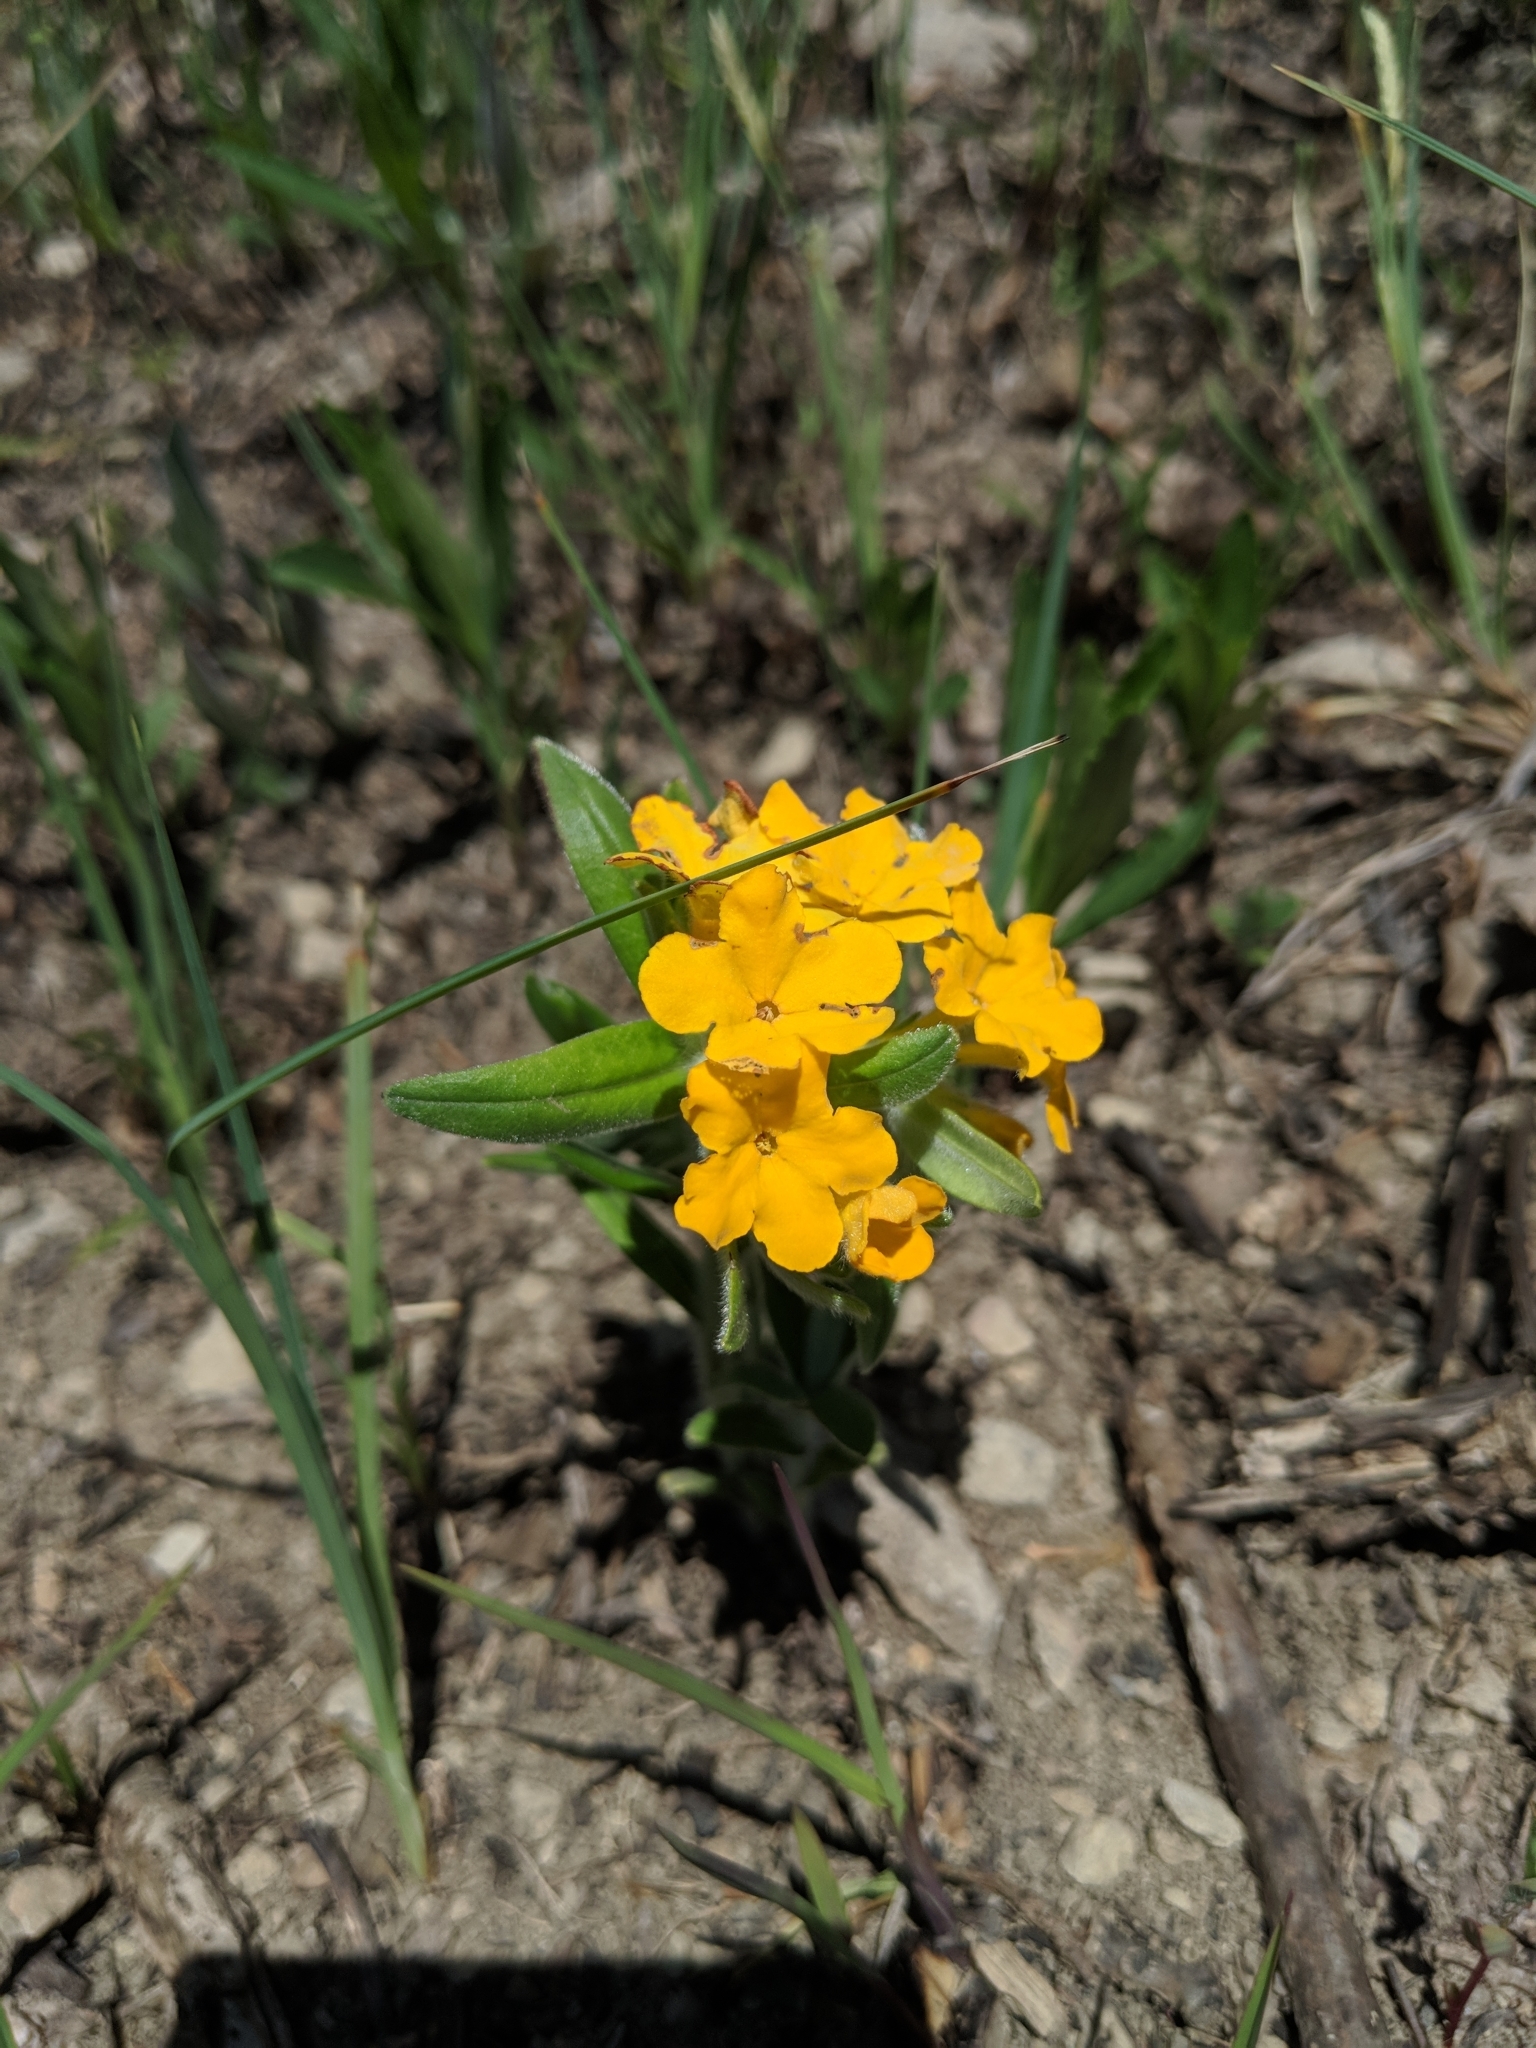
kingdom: Plantae
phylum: Tracheophyta
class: Magnoliopsida
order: Boraginales
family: Boraginaceae
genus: Lithospermum
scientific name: Lithospermum canescens
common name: Hoary puccoon
